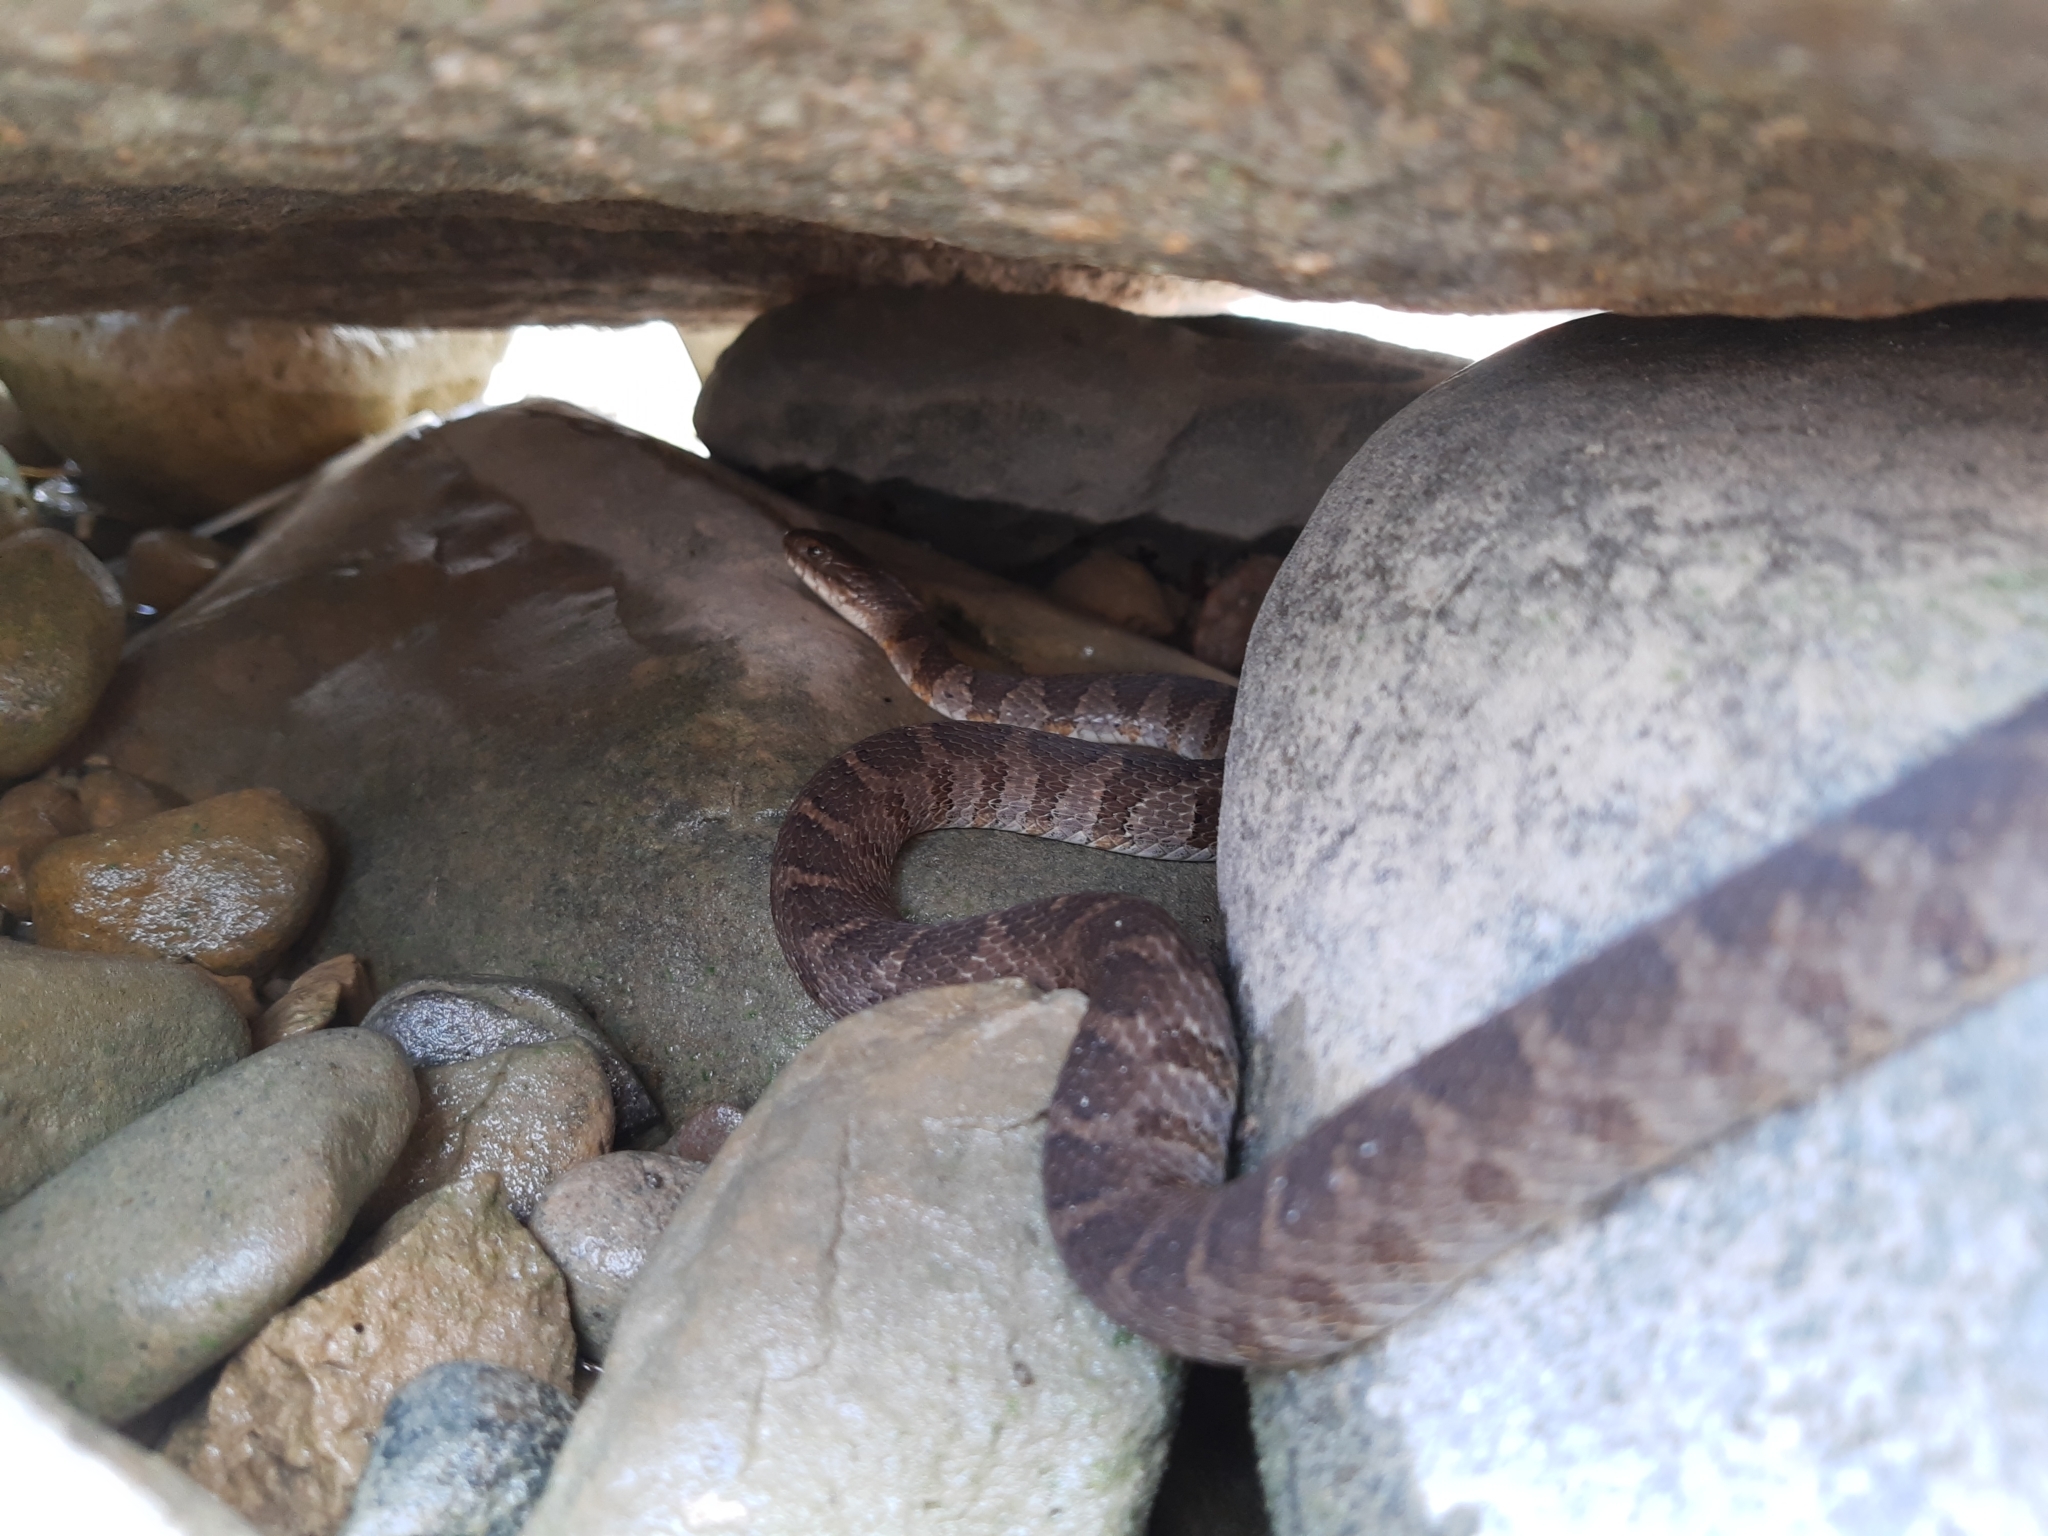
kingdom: Animalia
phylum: Chordata
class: Squamata
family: Colubridae
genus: Nerodia
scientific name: Nerodia sipedon
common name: Northern water snake
